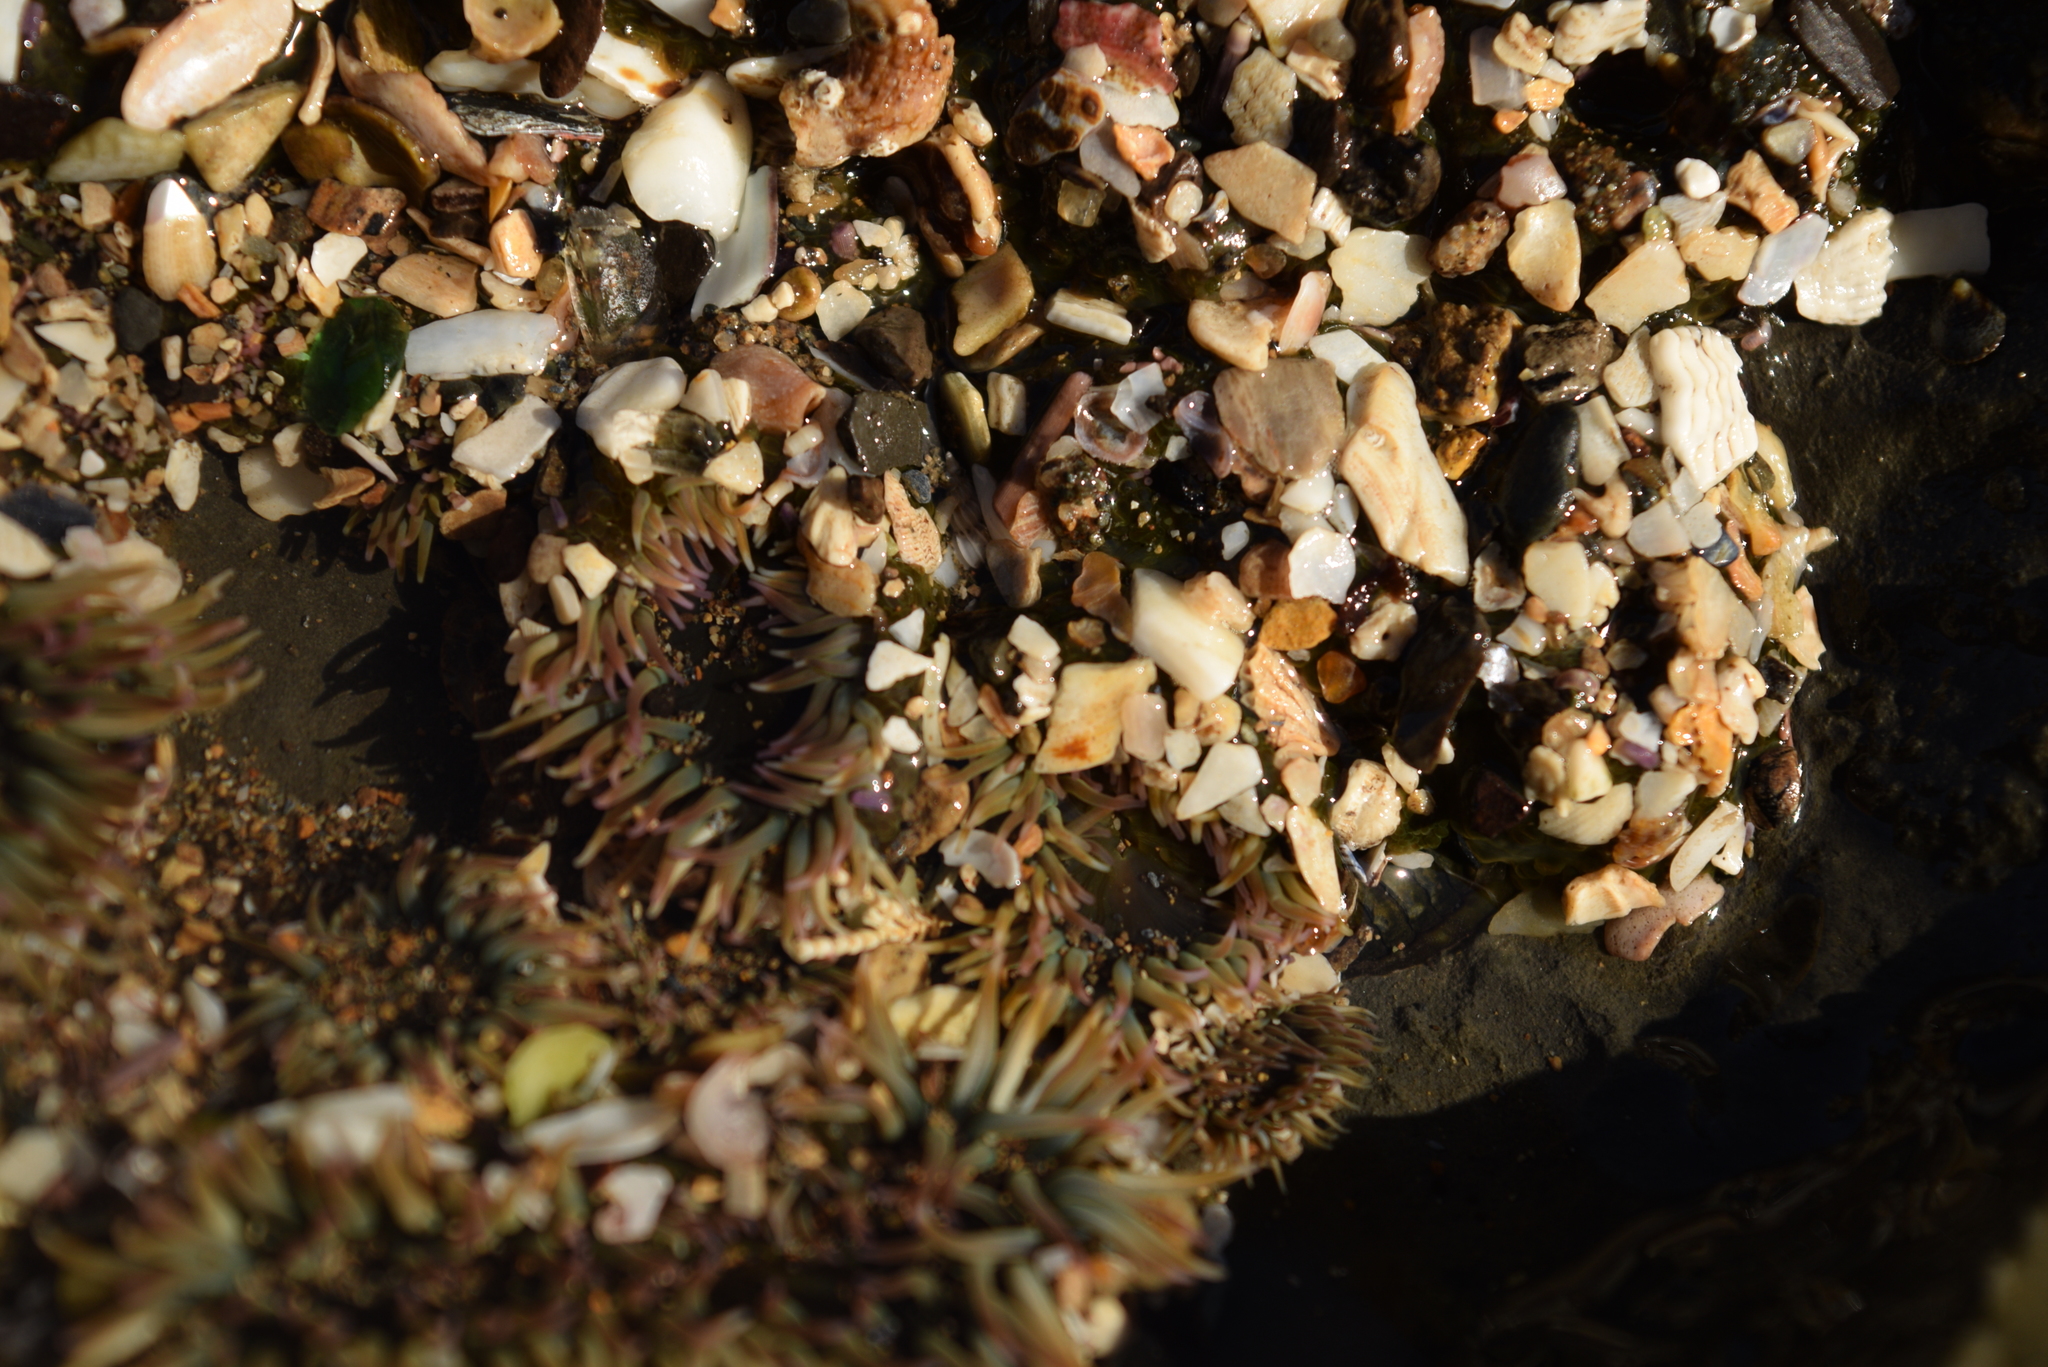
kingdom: Animalia
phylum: Cnidaria
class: Anthozoa
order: Actiniaria
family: Actiniidae
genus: Anthopleura
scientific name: Anthopleura elegantissima
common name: Clonal anemone
